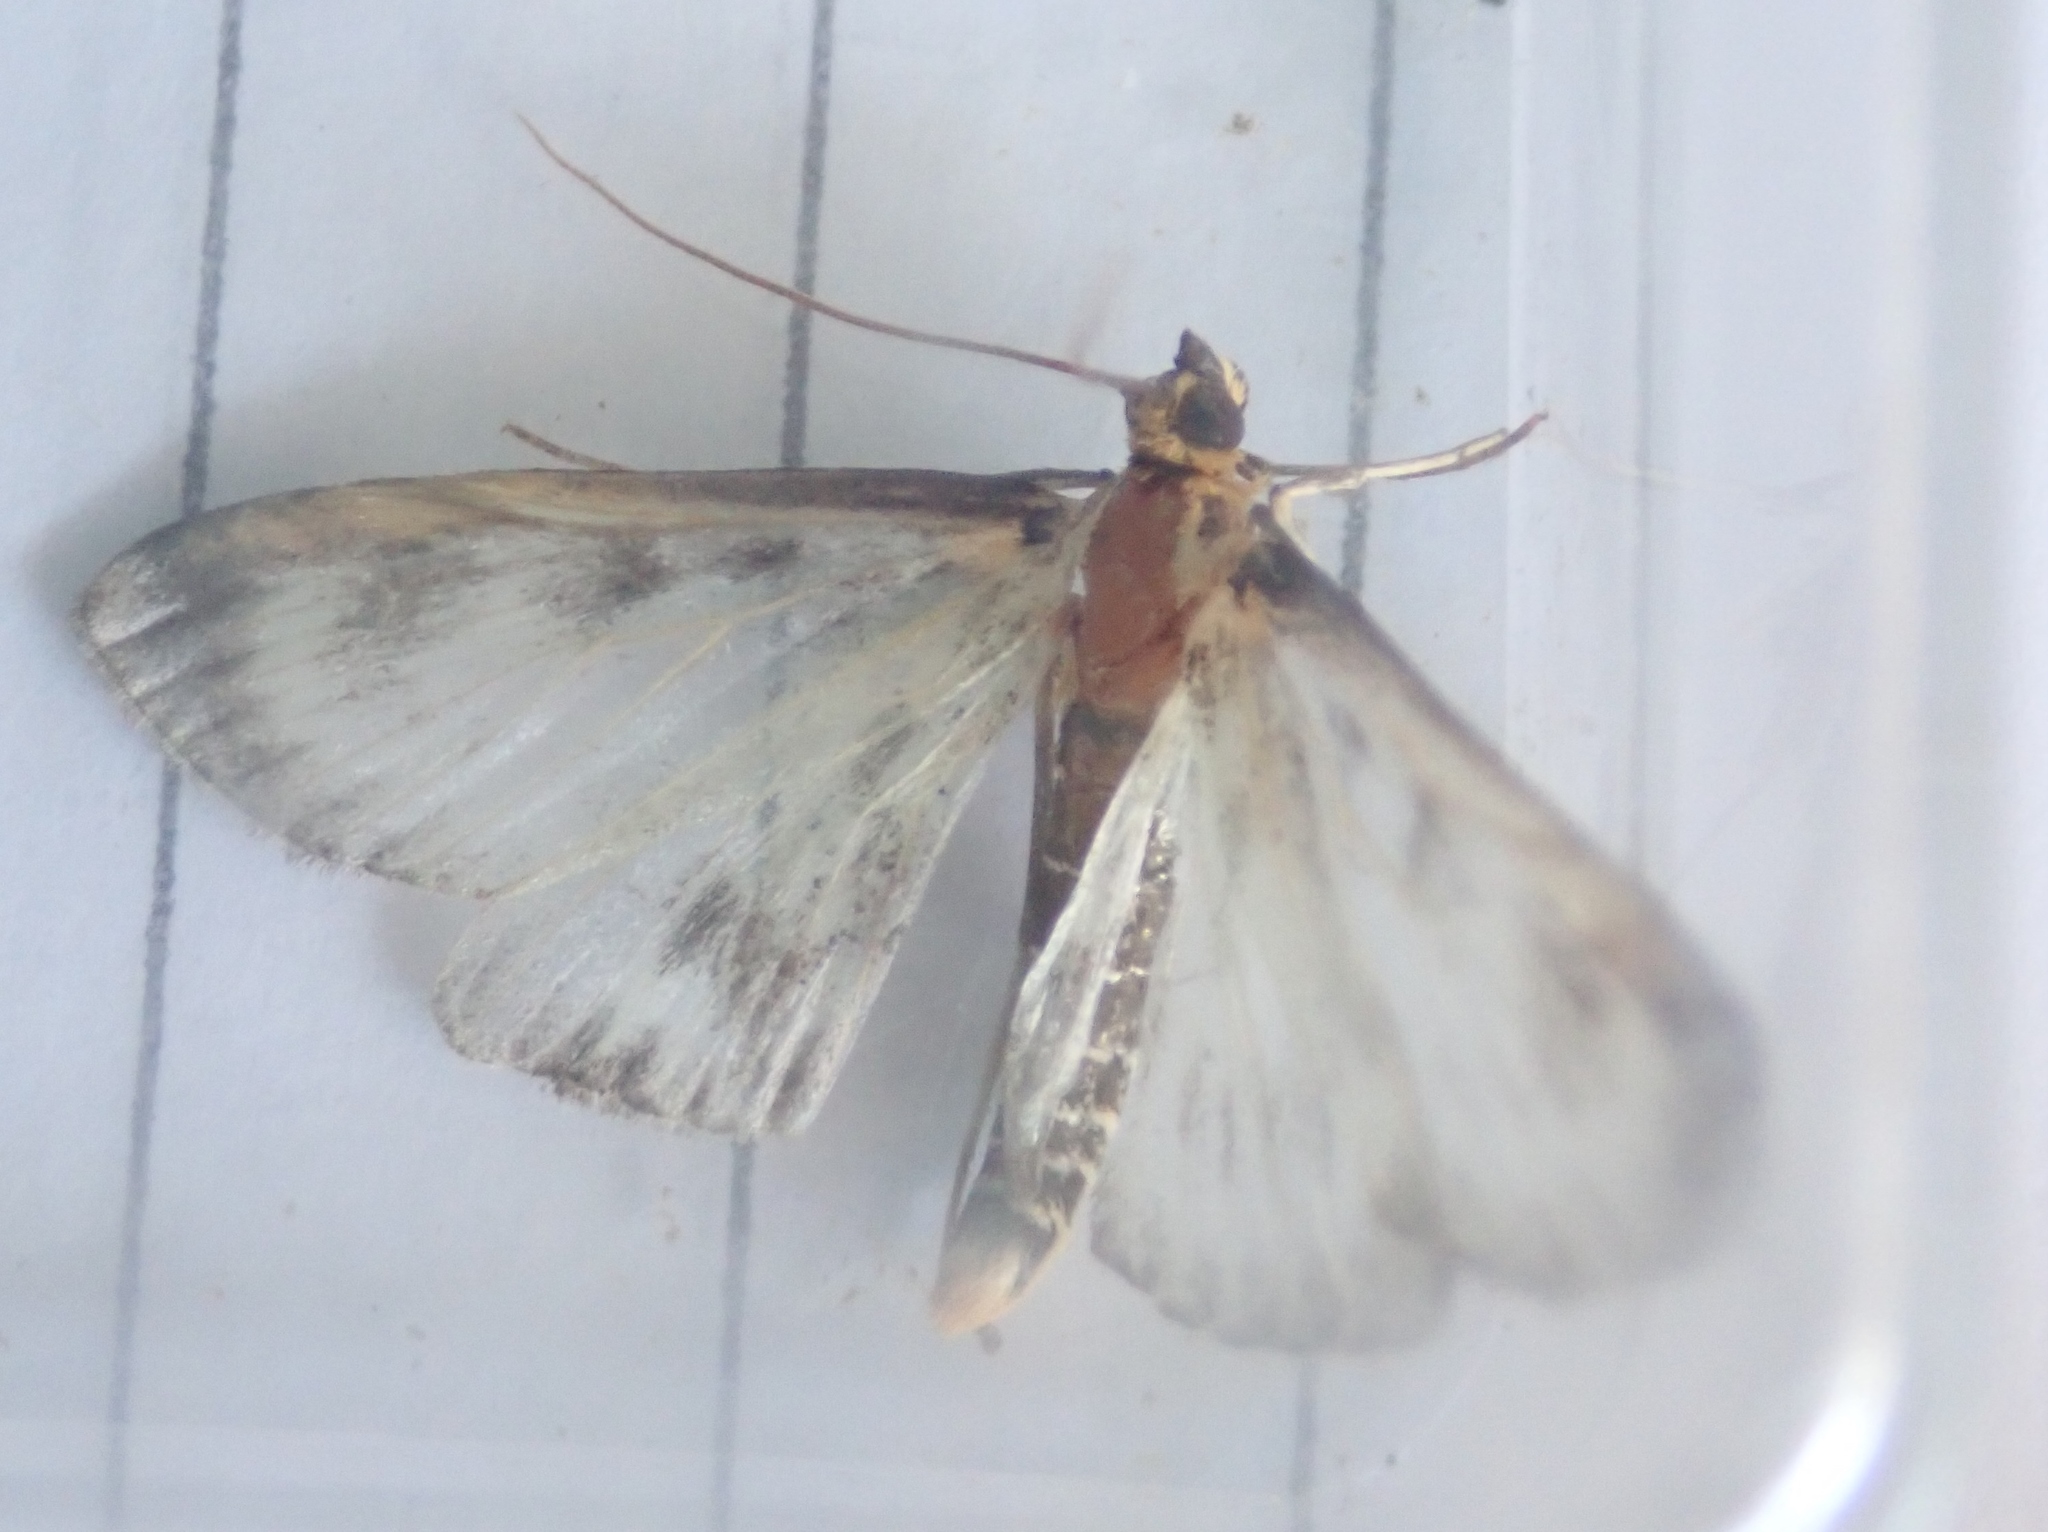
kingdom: Animalia
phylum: Arthropoda
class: Insecta
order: Lepidoptera
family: Crambidae
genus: Anania
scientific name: Anania hortulata
